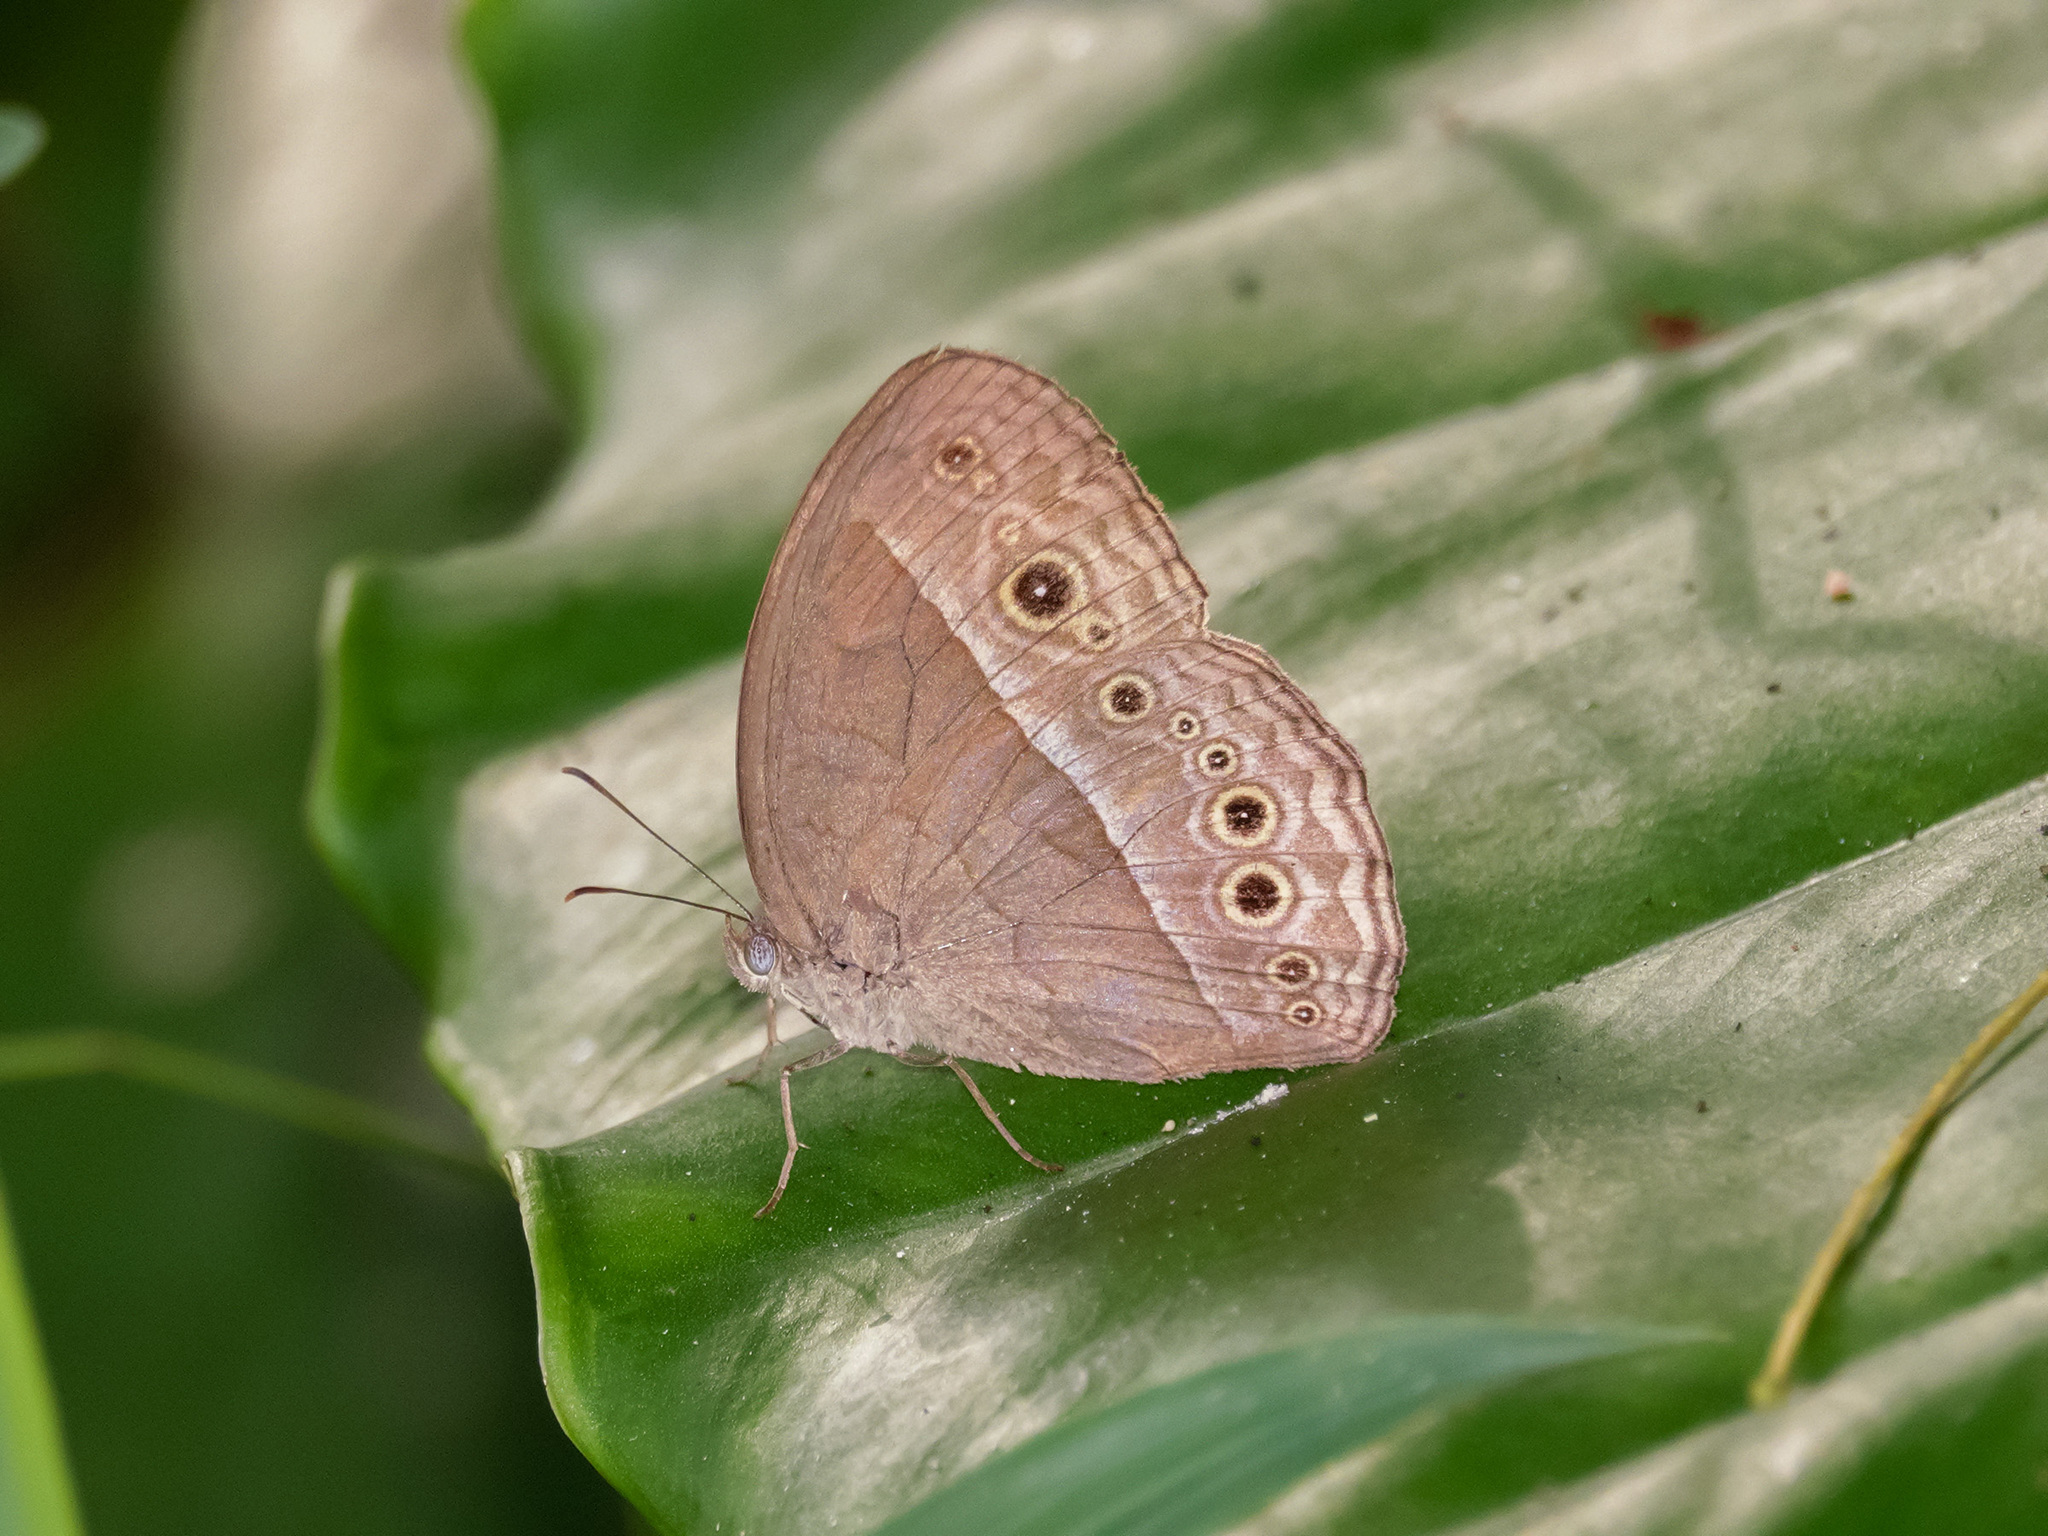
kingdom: Animalia
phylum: Arthropoda
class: Insecta
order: Lepidoptera
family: Nymphalidae
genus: Mycalesis
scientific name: Mycalesis perseoides
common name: Burmese bushbrown
